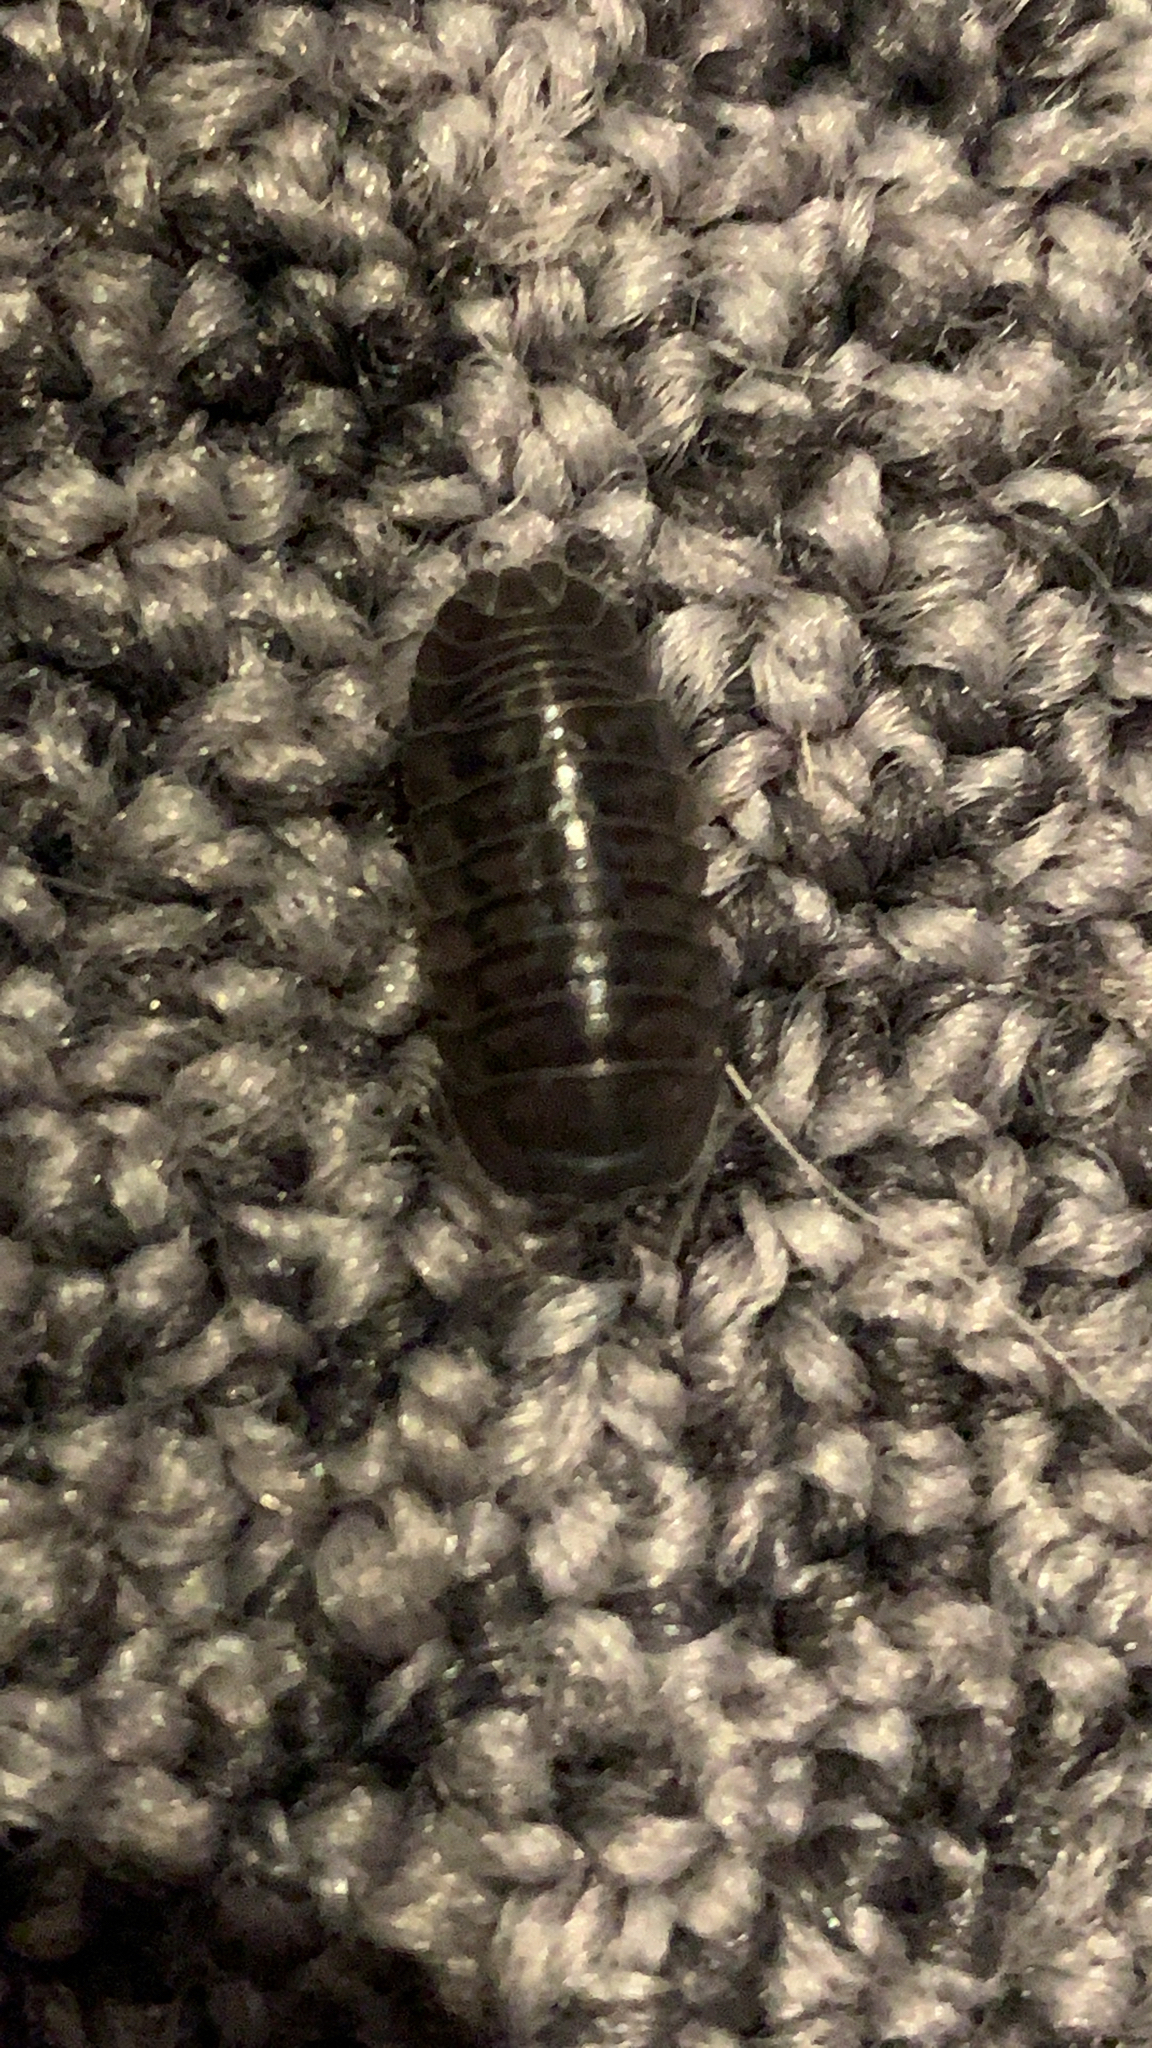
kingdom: Animalia
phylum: Arthropoda
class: Malacostraca
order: Isopoda
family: Armadillidiidae
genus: Armadillidium
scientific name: Armadillidium nasatum
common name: Isopod
